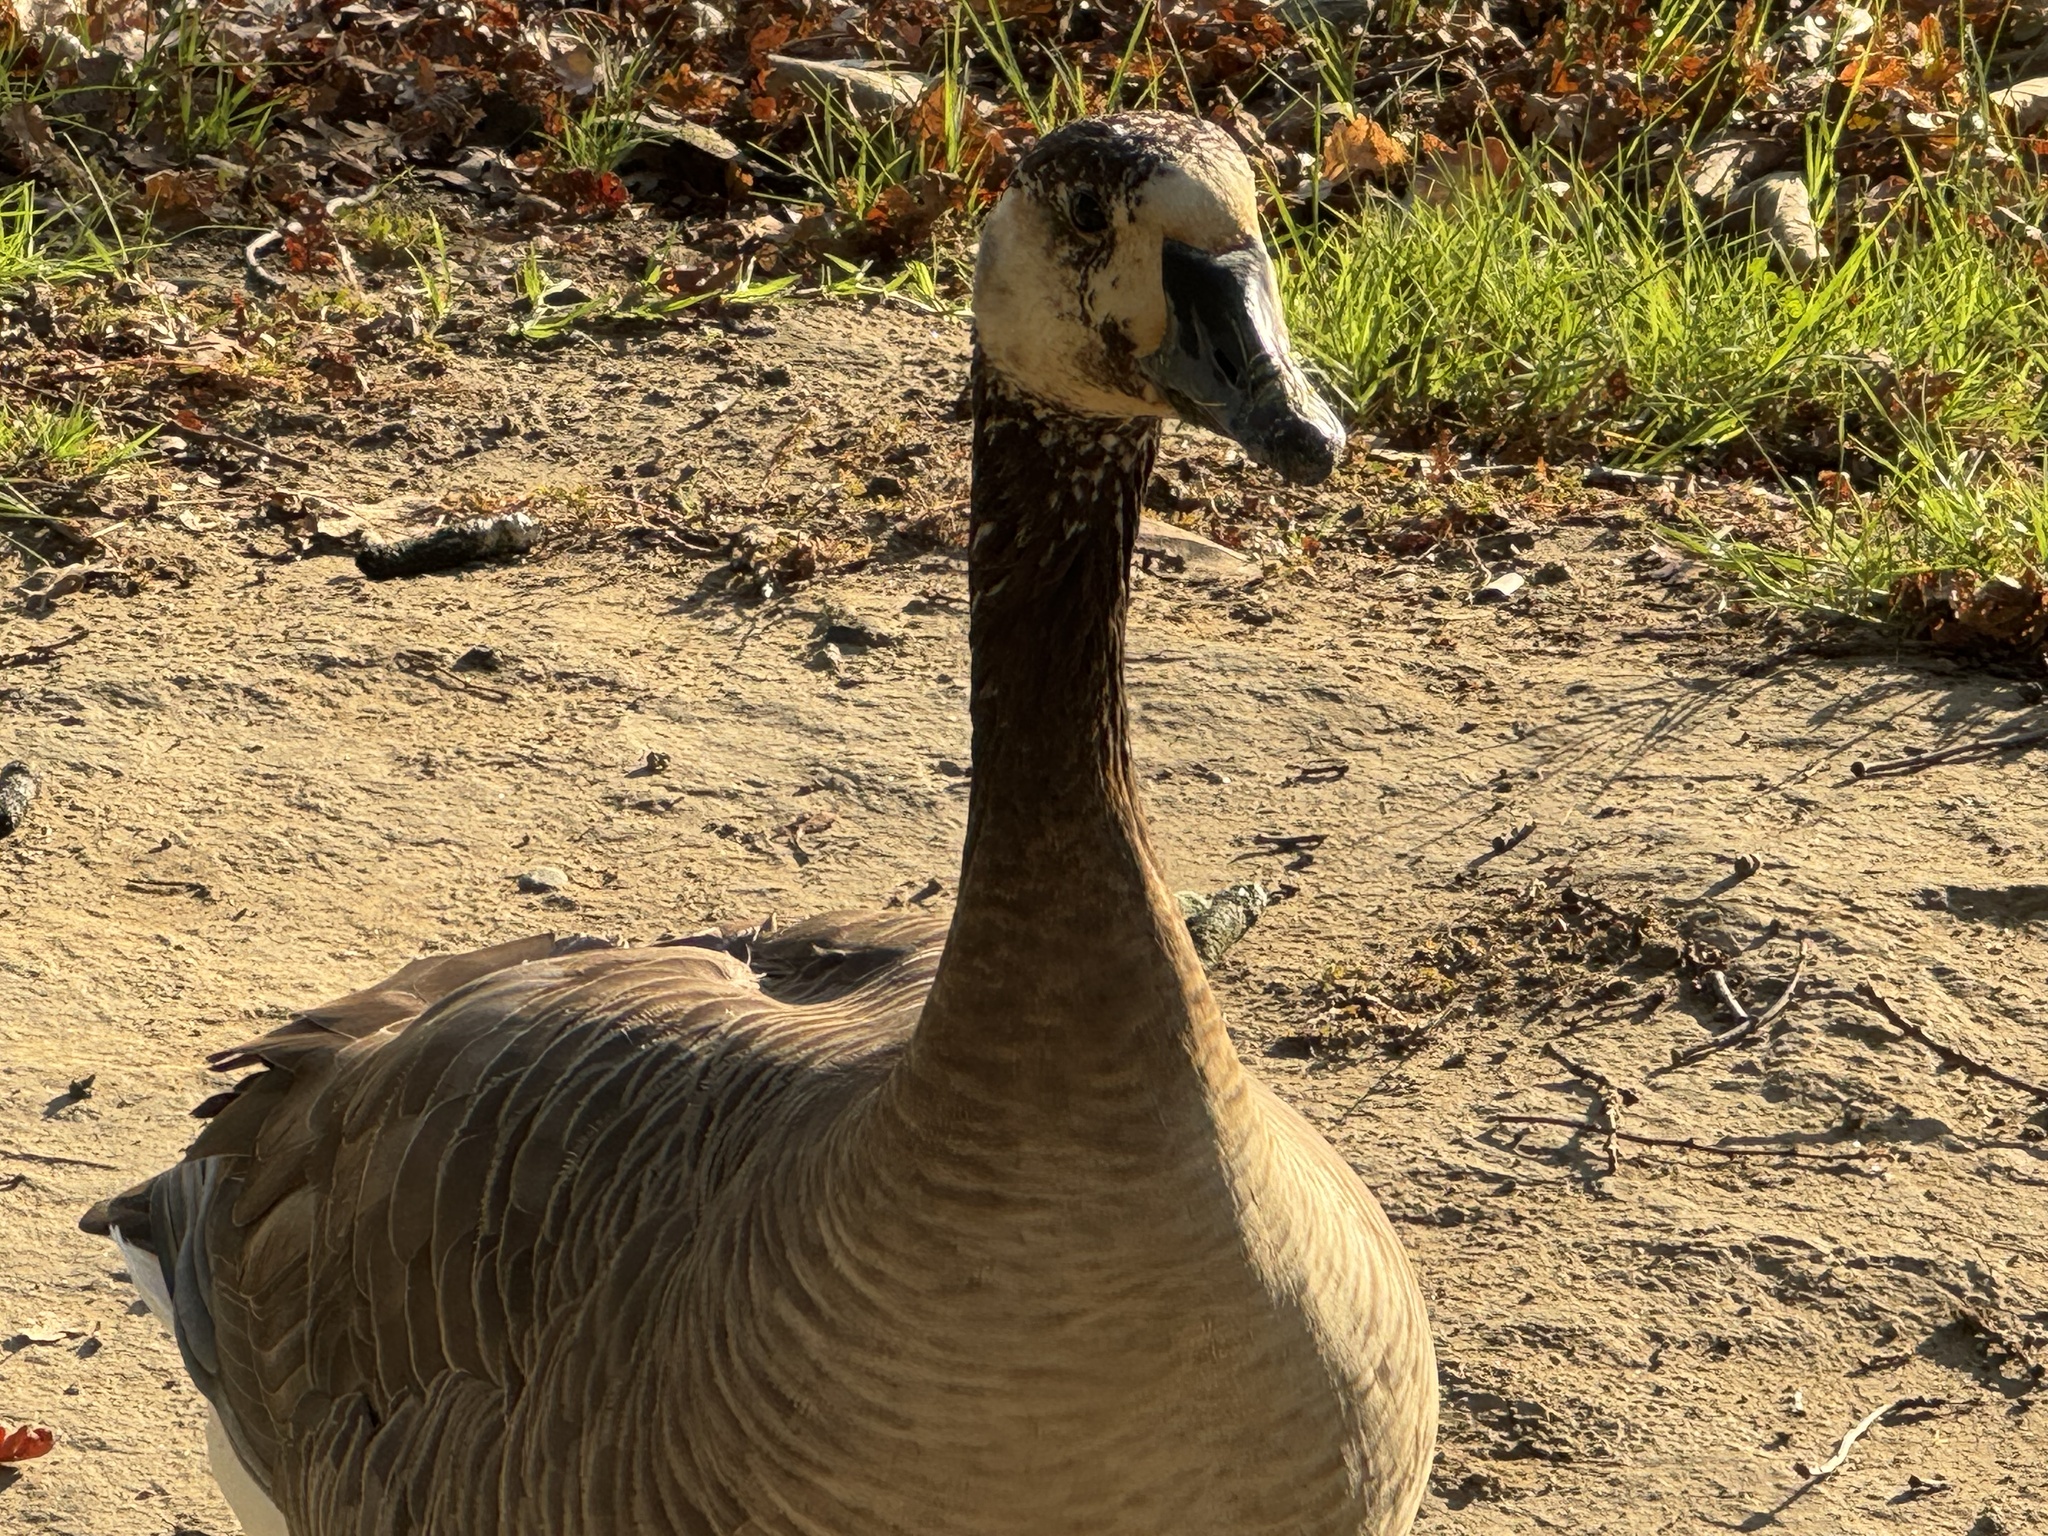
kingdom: Animalia
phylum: Chordata
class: Aves
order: Anseriformes
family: Anatidae
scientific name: Anatidae
